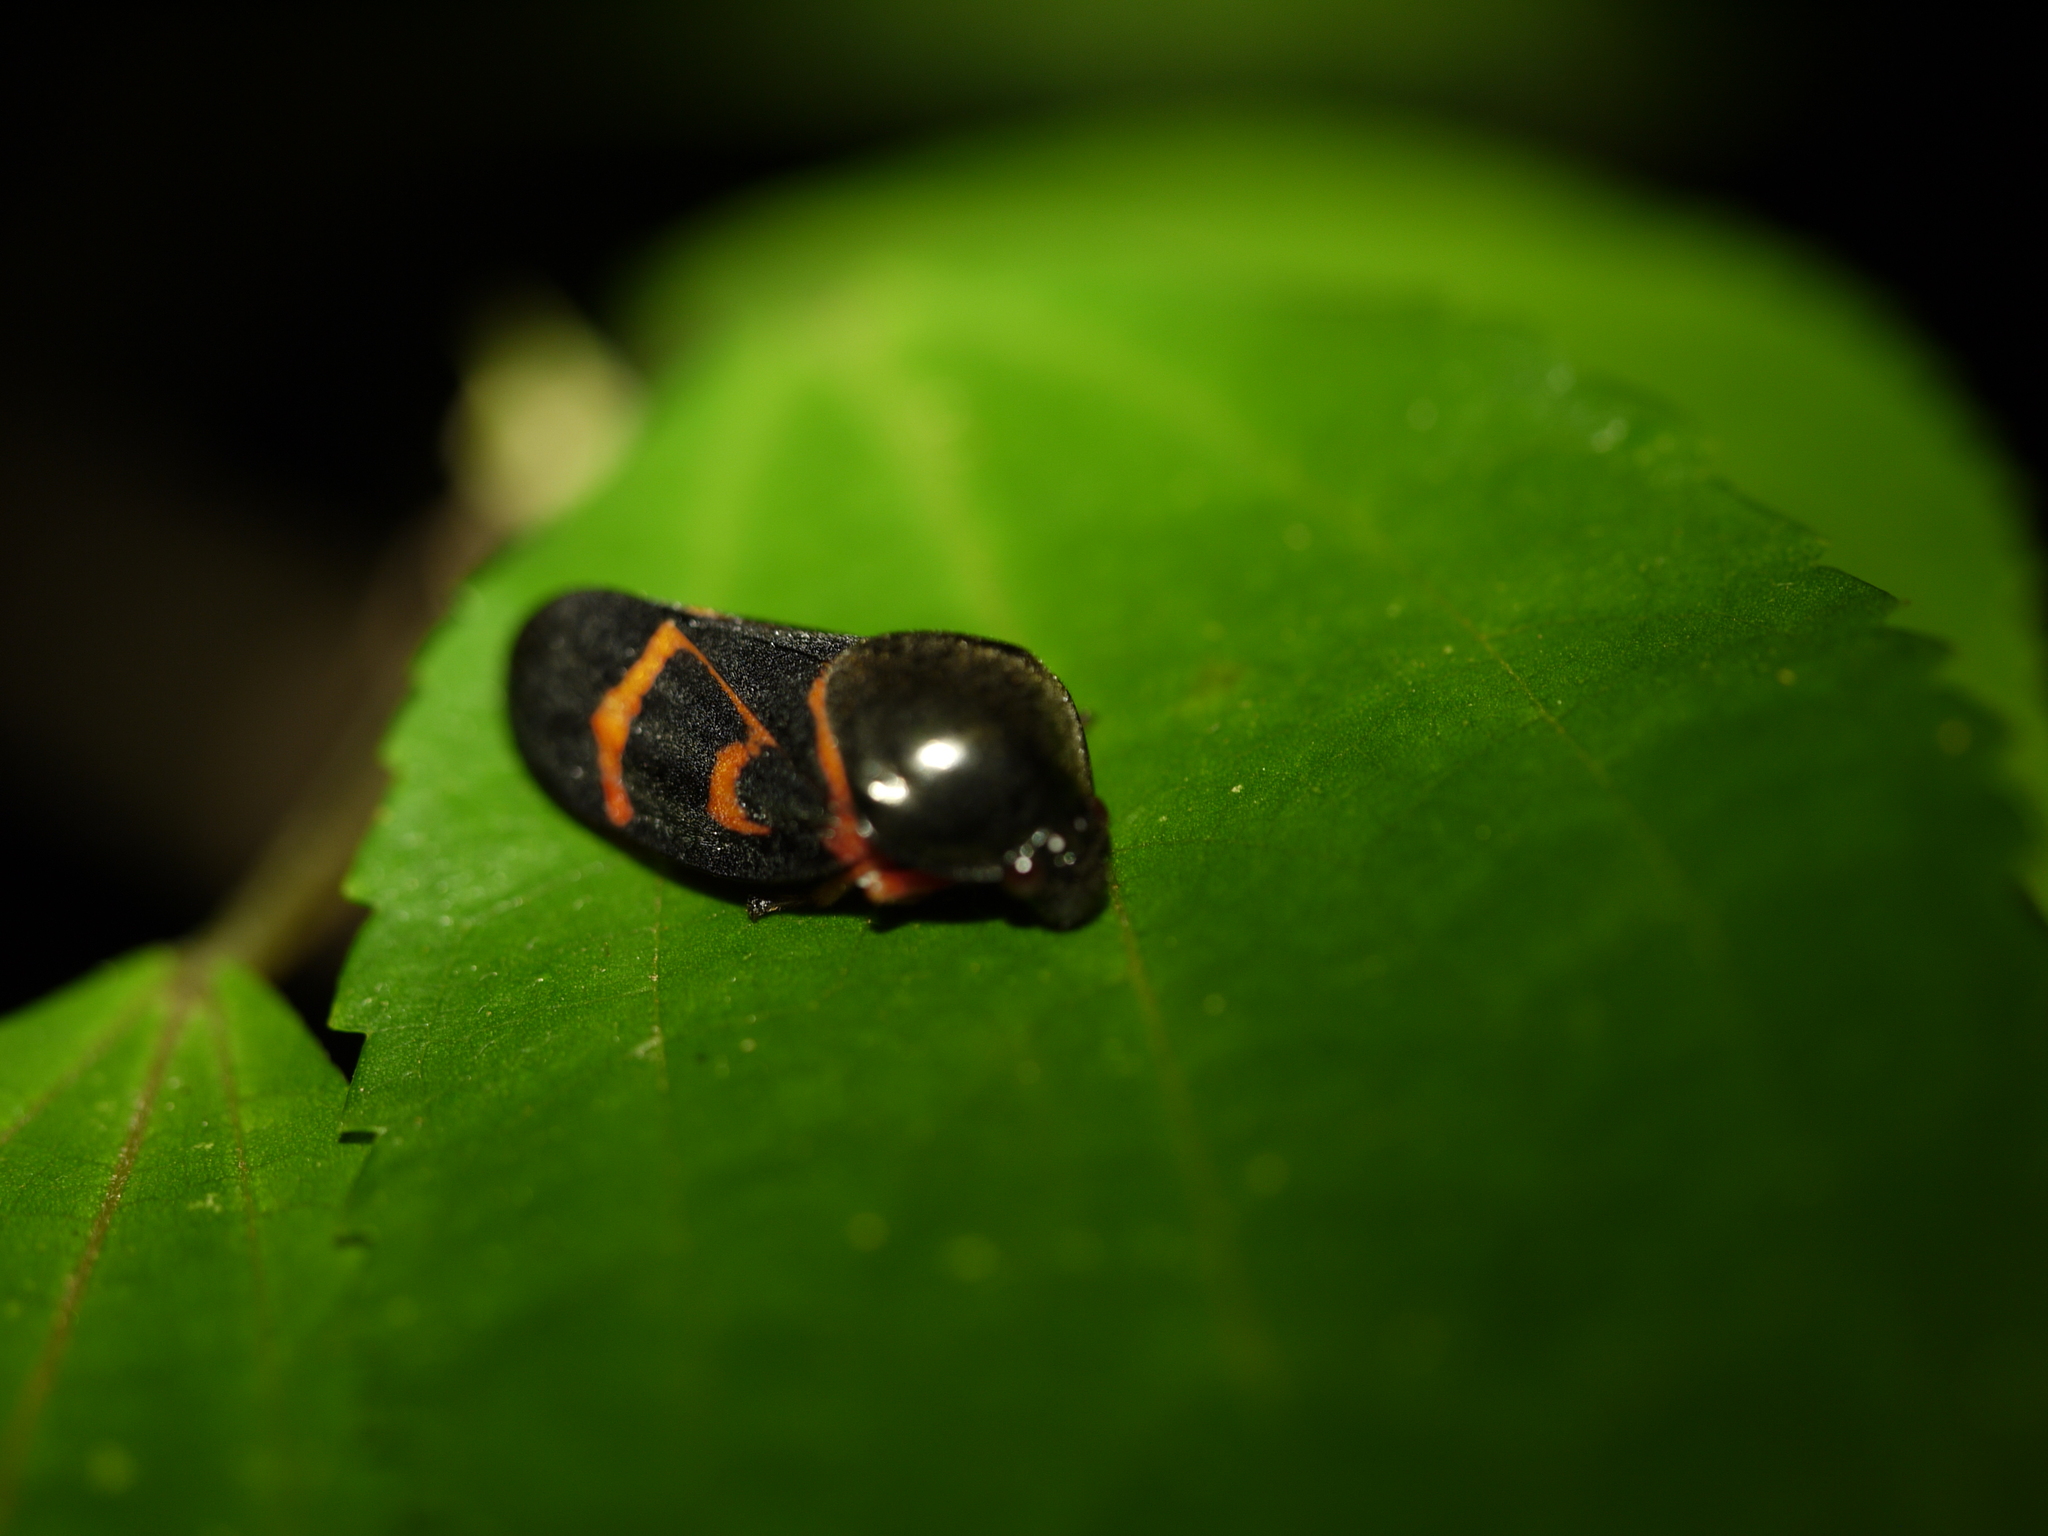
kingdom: Animalia
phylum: Arthropoda
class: Insecta
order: Hemiptera
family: Cercopidae
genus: Okiscarta
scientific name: Okiscarta uchidae
